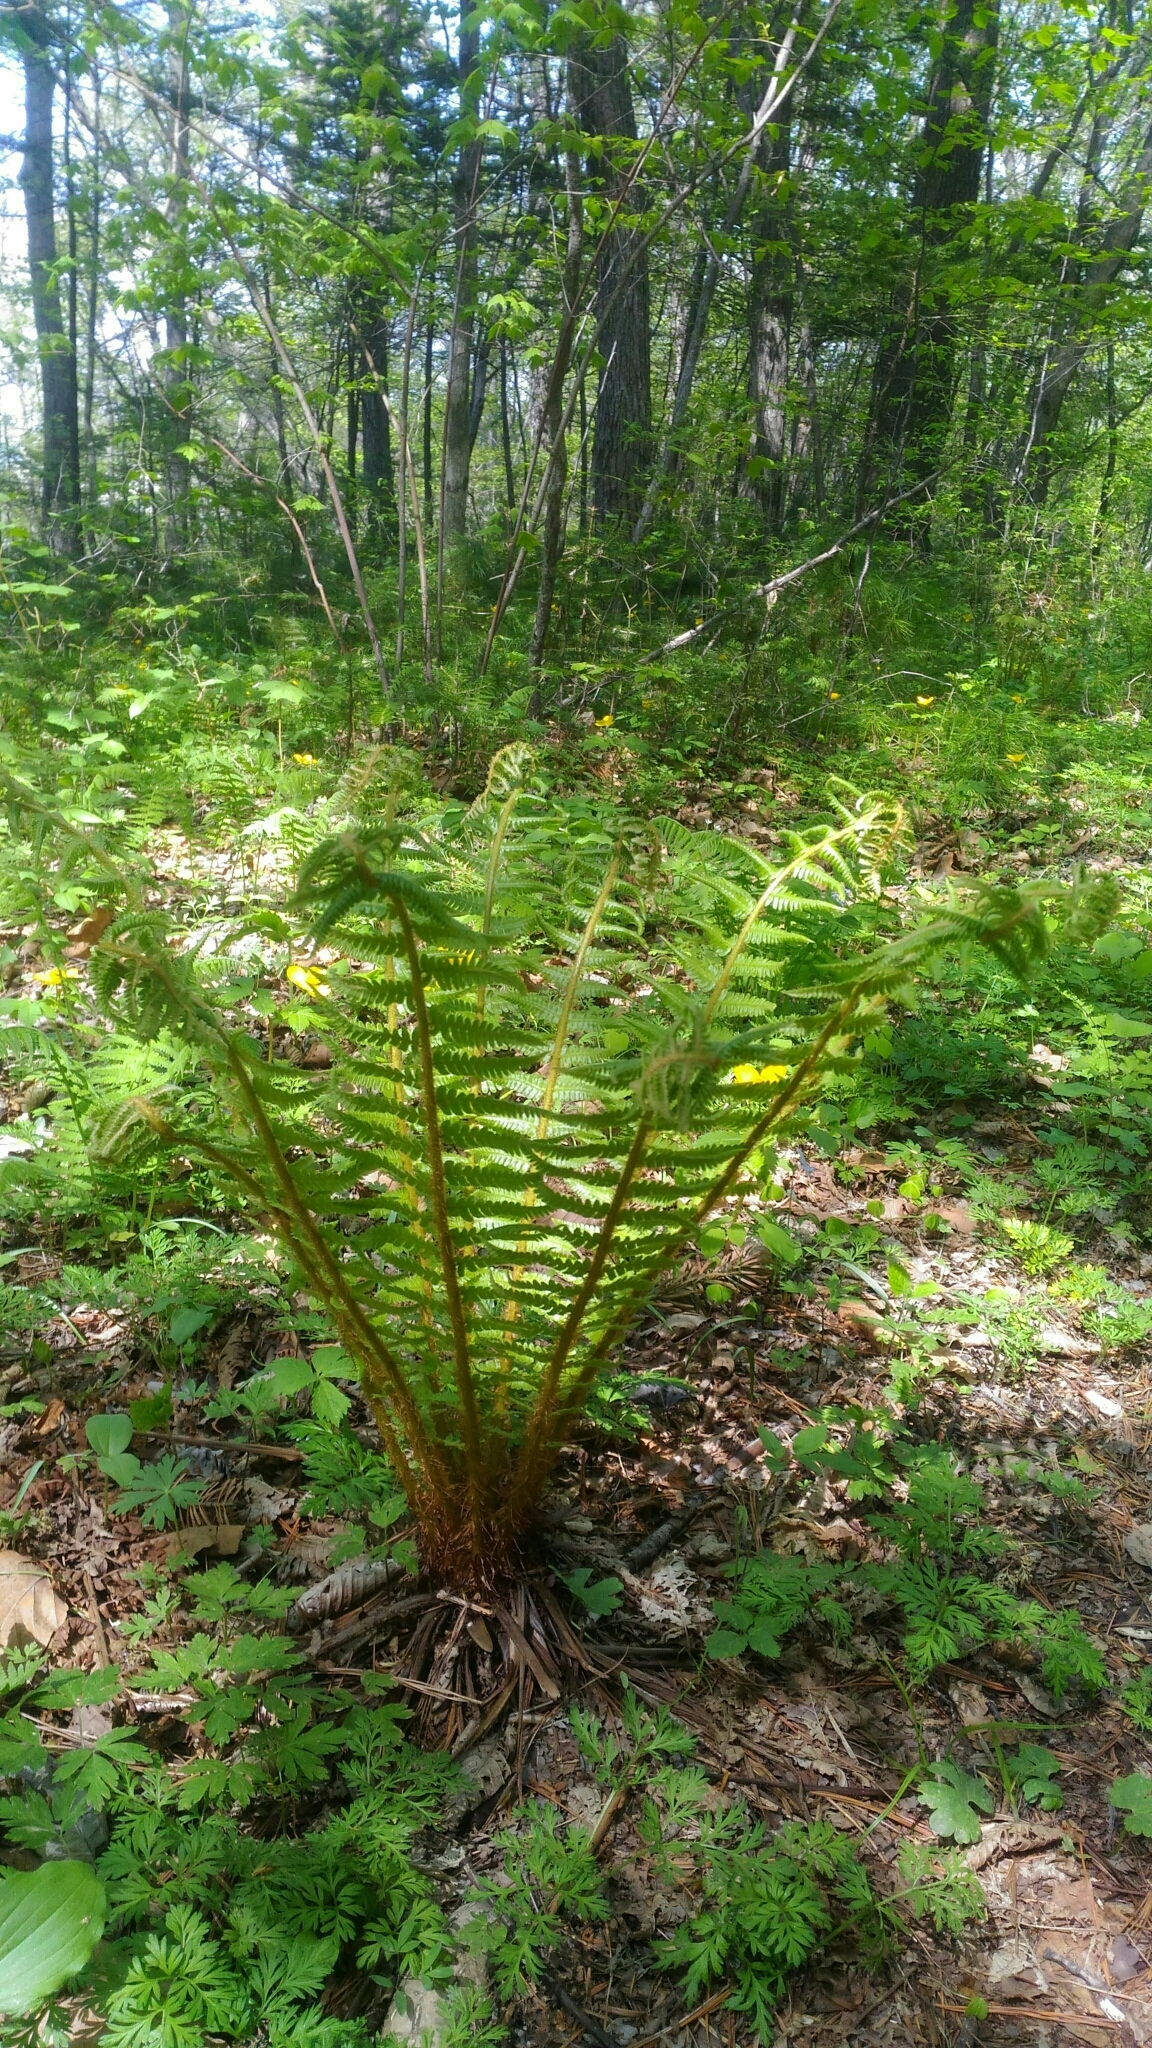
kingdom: Plantae
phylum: Tracheophyta
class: Polypodiopsida
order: Polypodiales
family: Dryopteridaceae
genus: Dryopteris
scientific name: Dryopteris crassirhizoma
